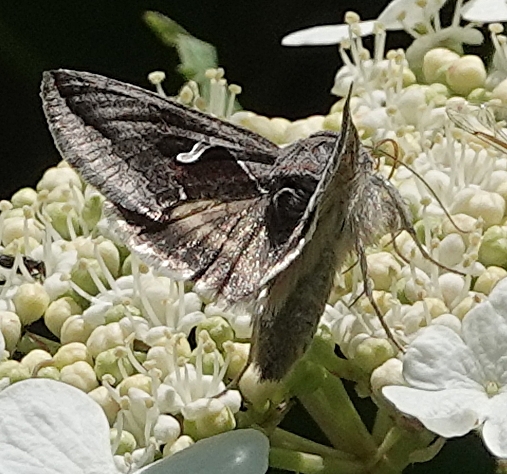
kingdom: Animalia
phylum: Arthropoda
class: Insecta
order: Lepidoptera
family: Noctuidae
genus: Anagrapha
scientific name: Anagrapha falcifera
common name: Celery looper
